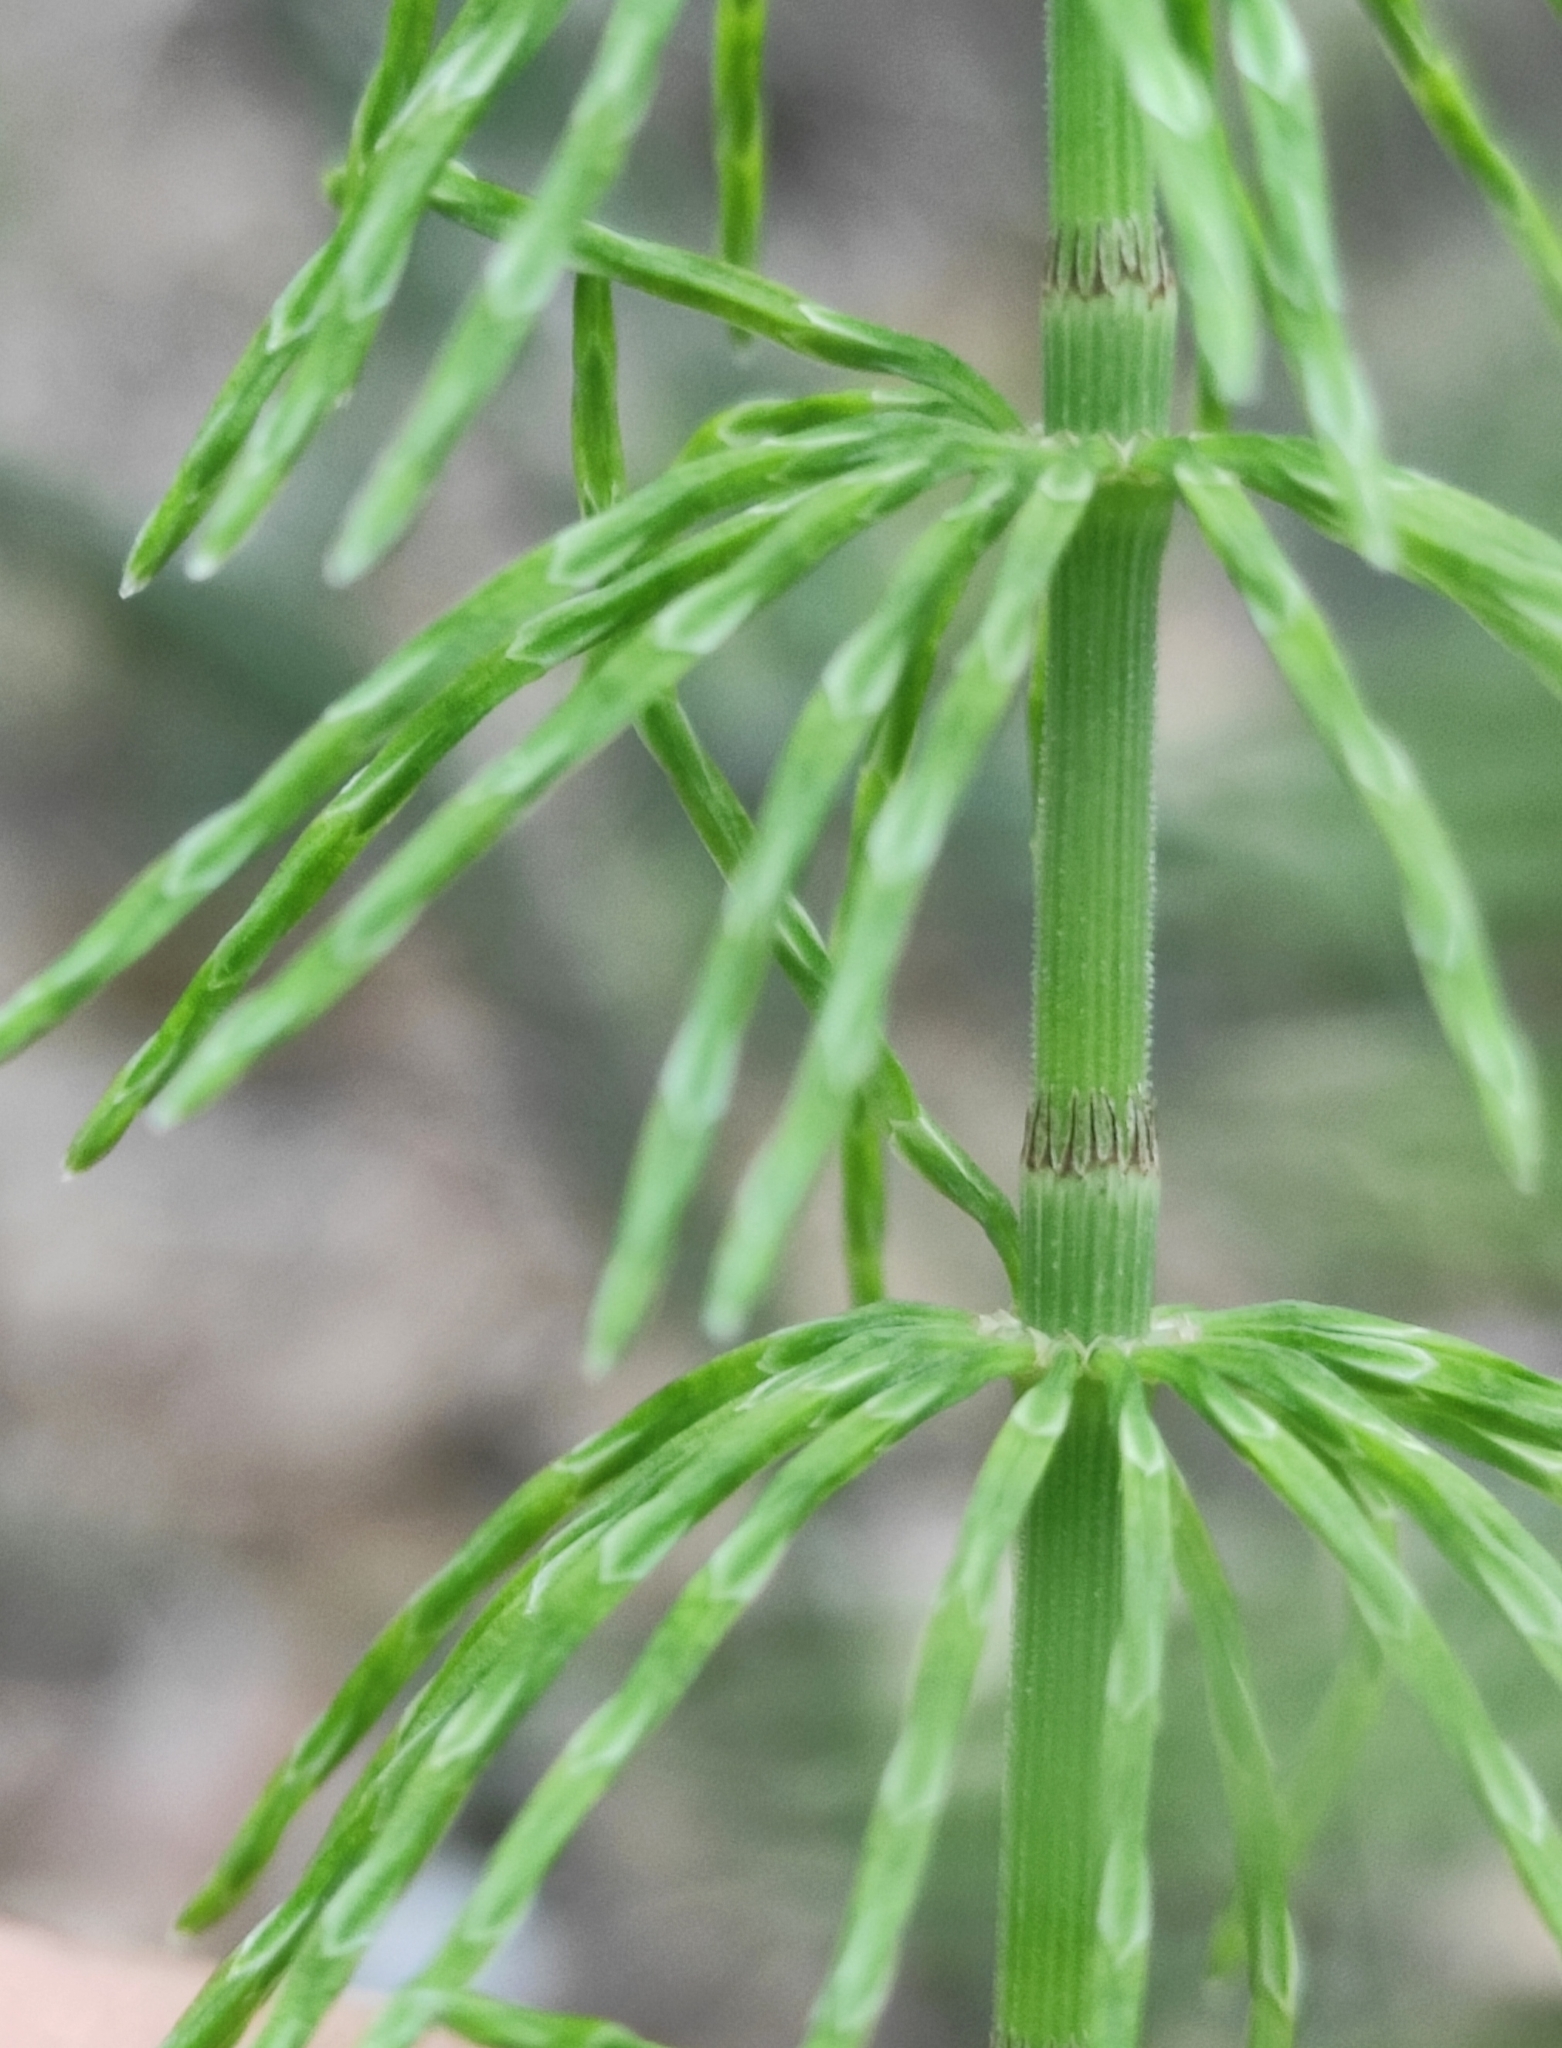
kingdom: Plantae
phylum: Tracheophyta
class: Polypodiopsida
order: Equisetales
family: Equisetaceae
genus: Equisetum
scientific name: Equisetum pratense
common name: Meadow horsetail
